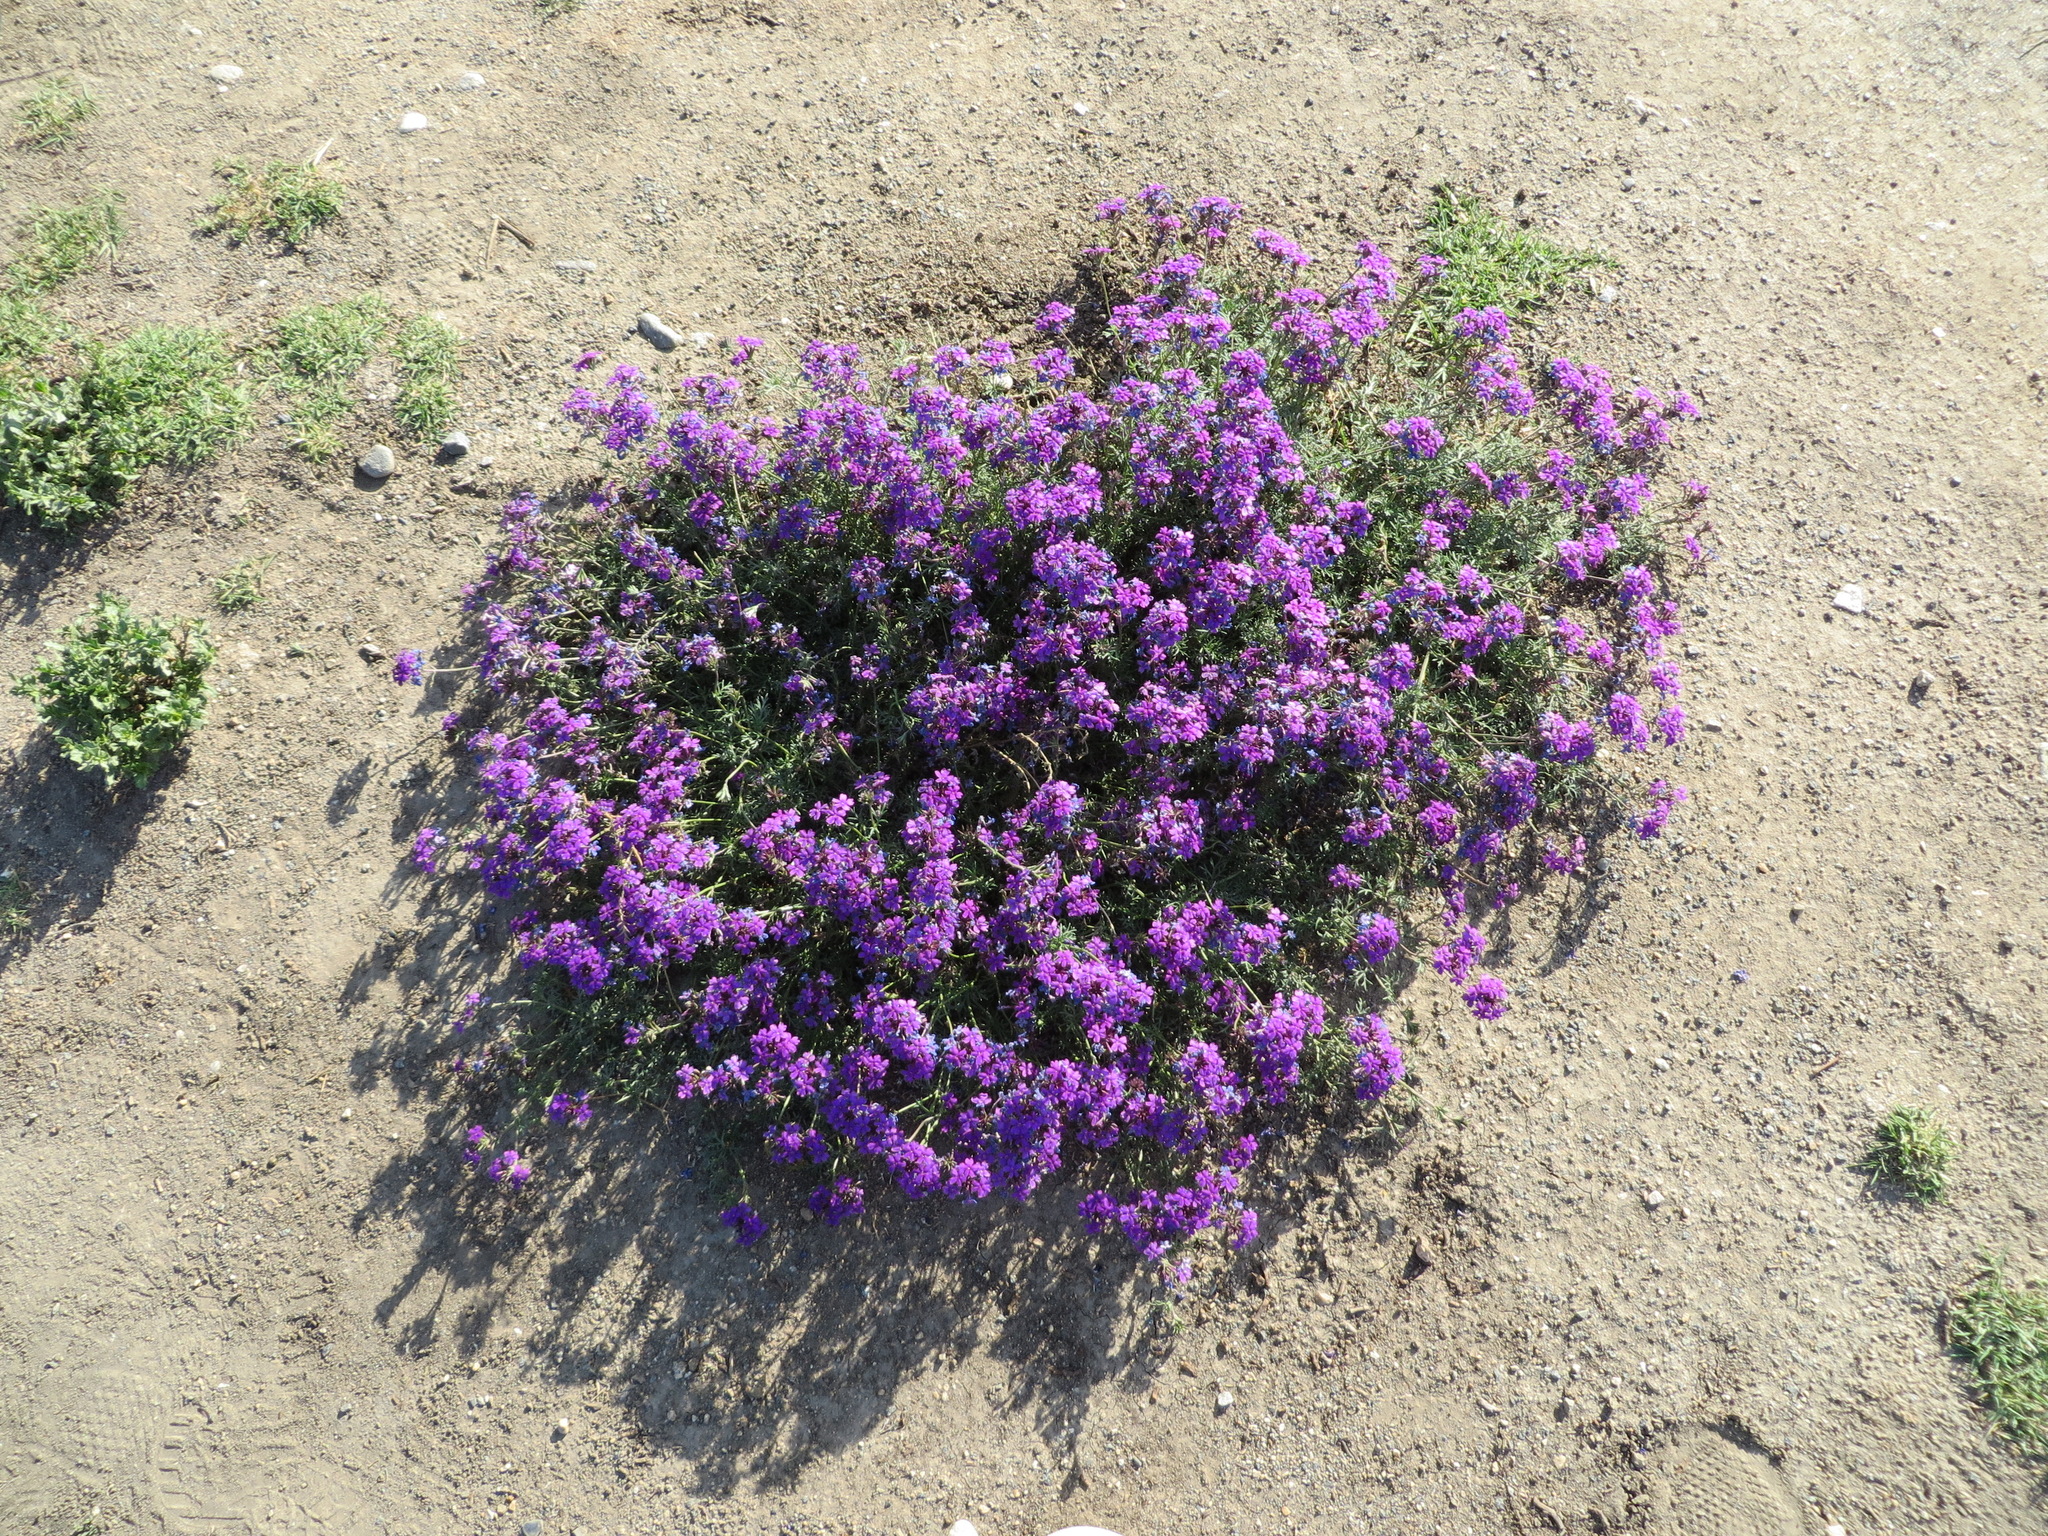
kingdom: Plantae
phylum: Tracheophyta
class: Magnoliopsida
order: Lamiales
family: Verbenaceae
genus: Verbena
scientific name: Verbena
